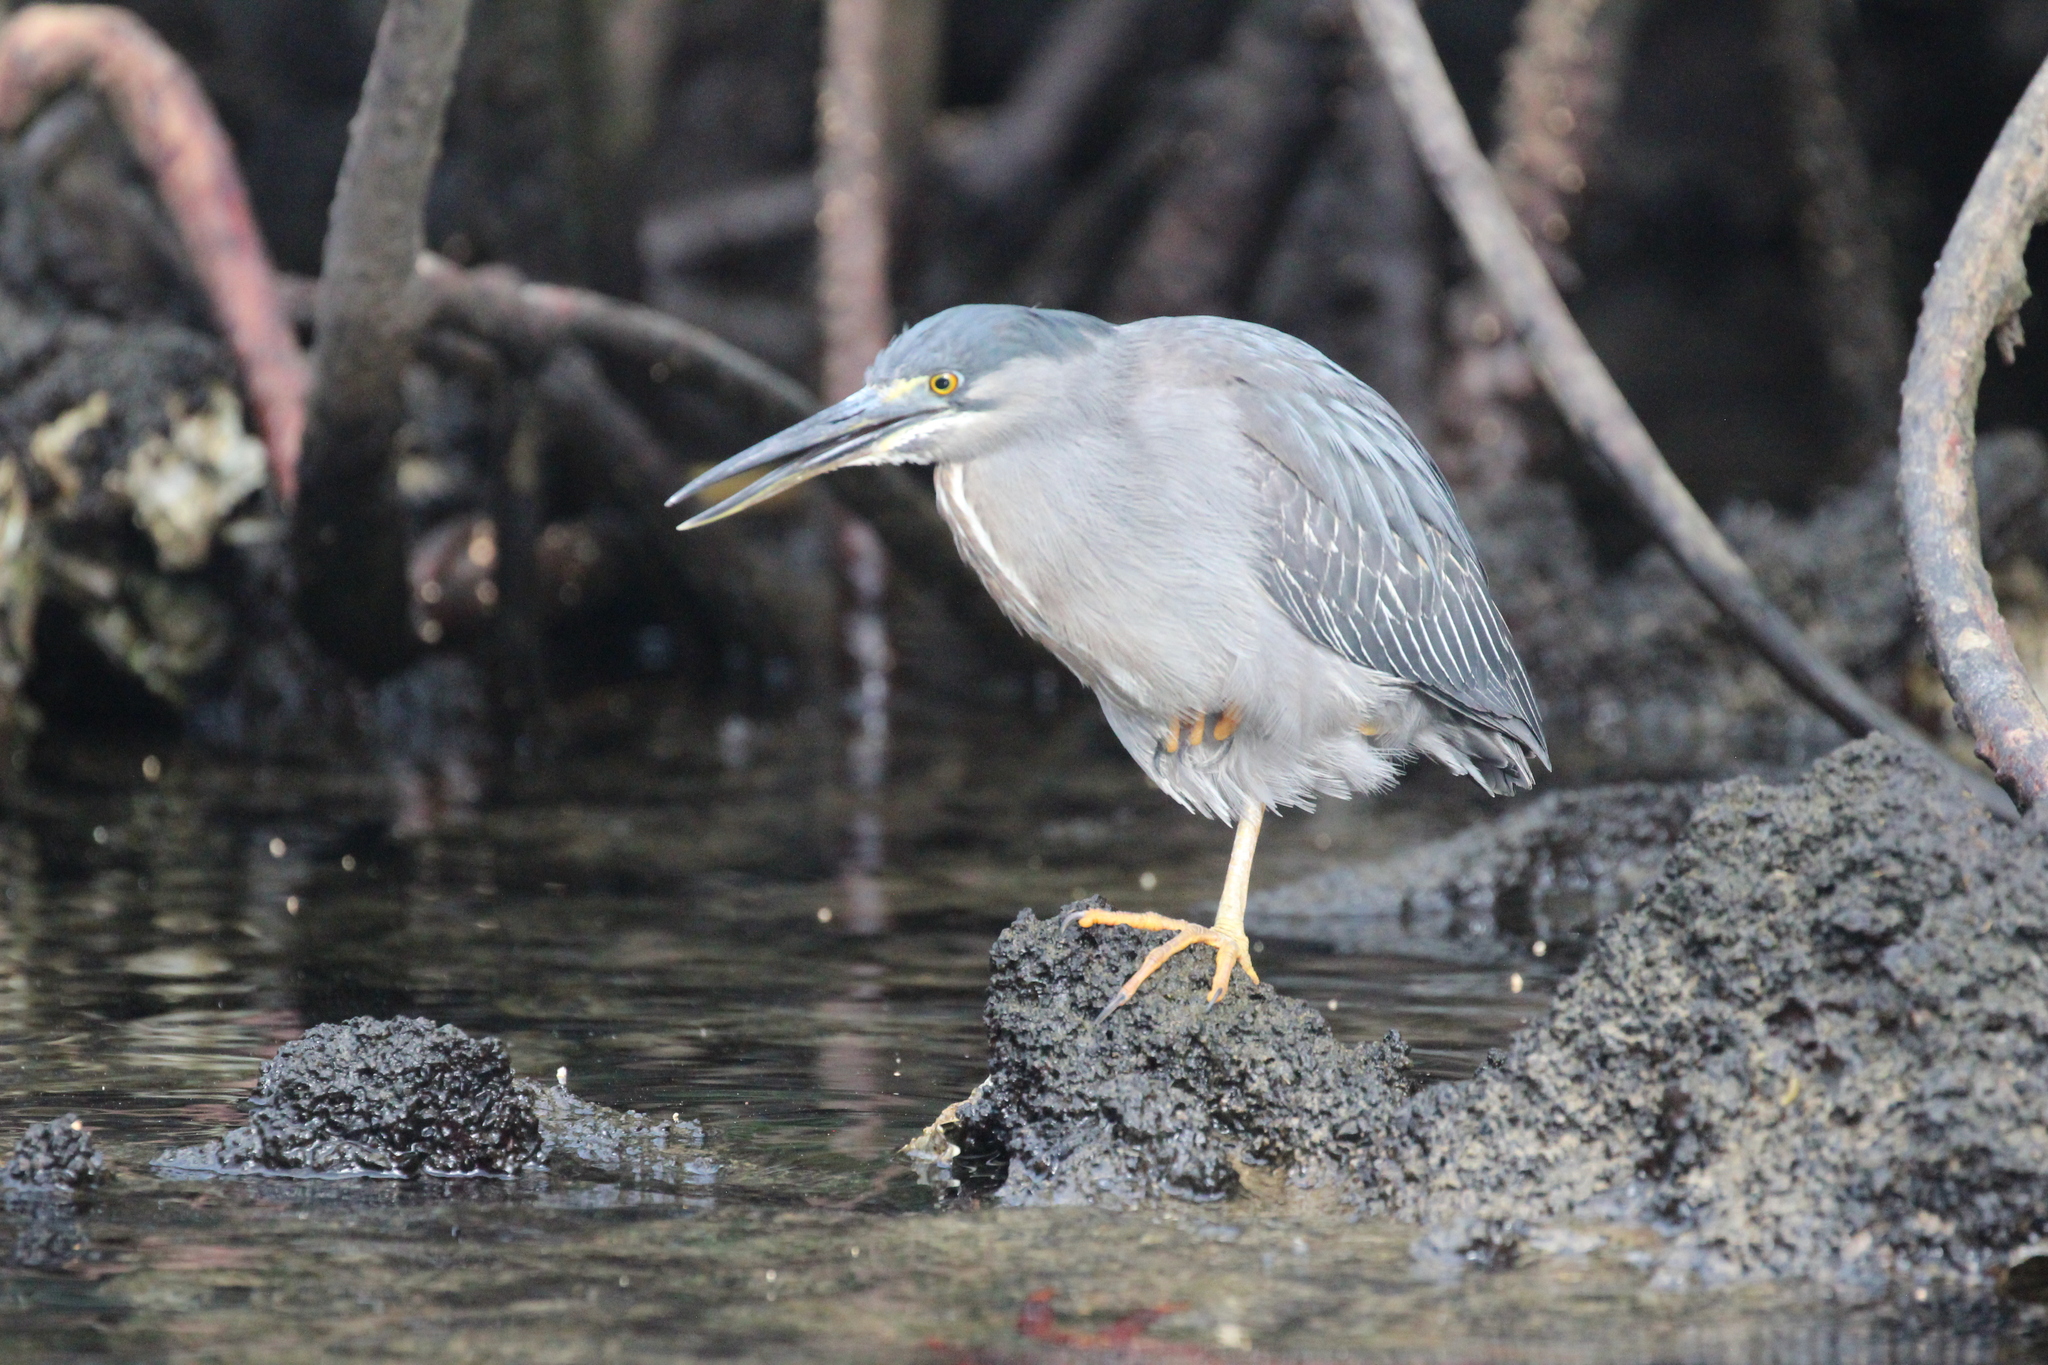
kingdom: Animalia
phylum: Chordata
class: Aves
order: Pelecaniformes
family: Ardeidae
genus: Butorides
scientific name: Butorides striata
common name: Striated heron
